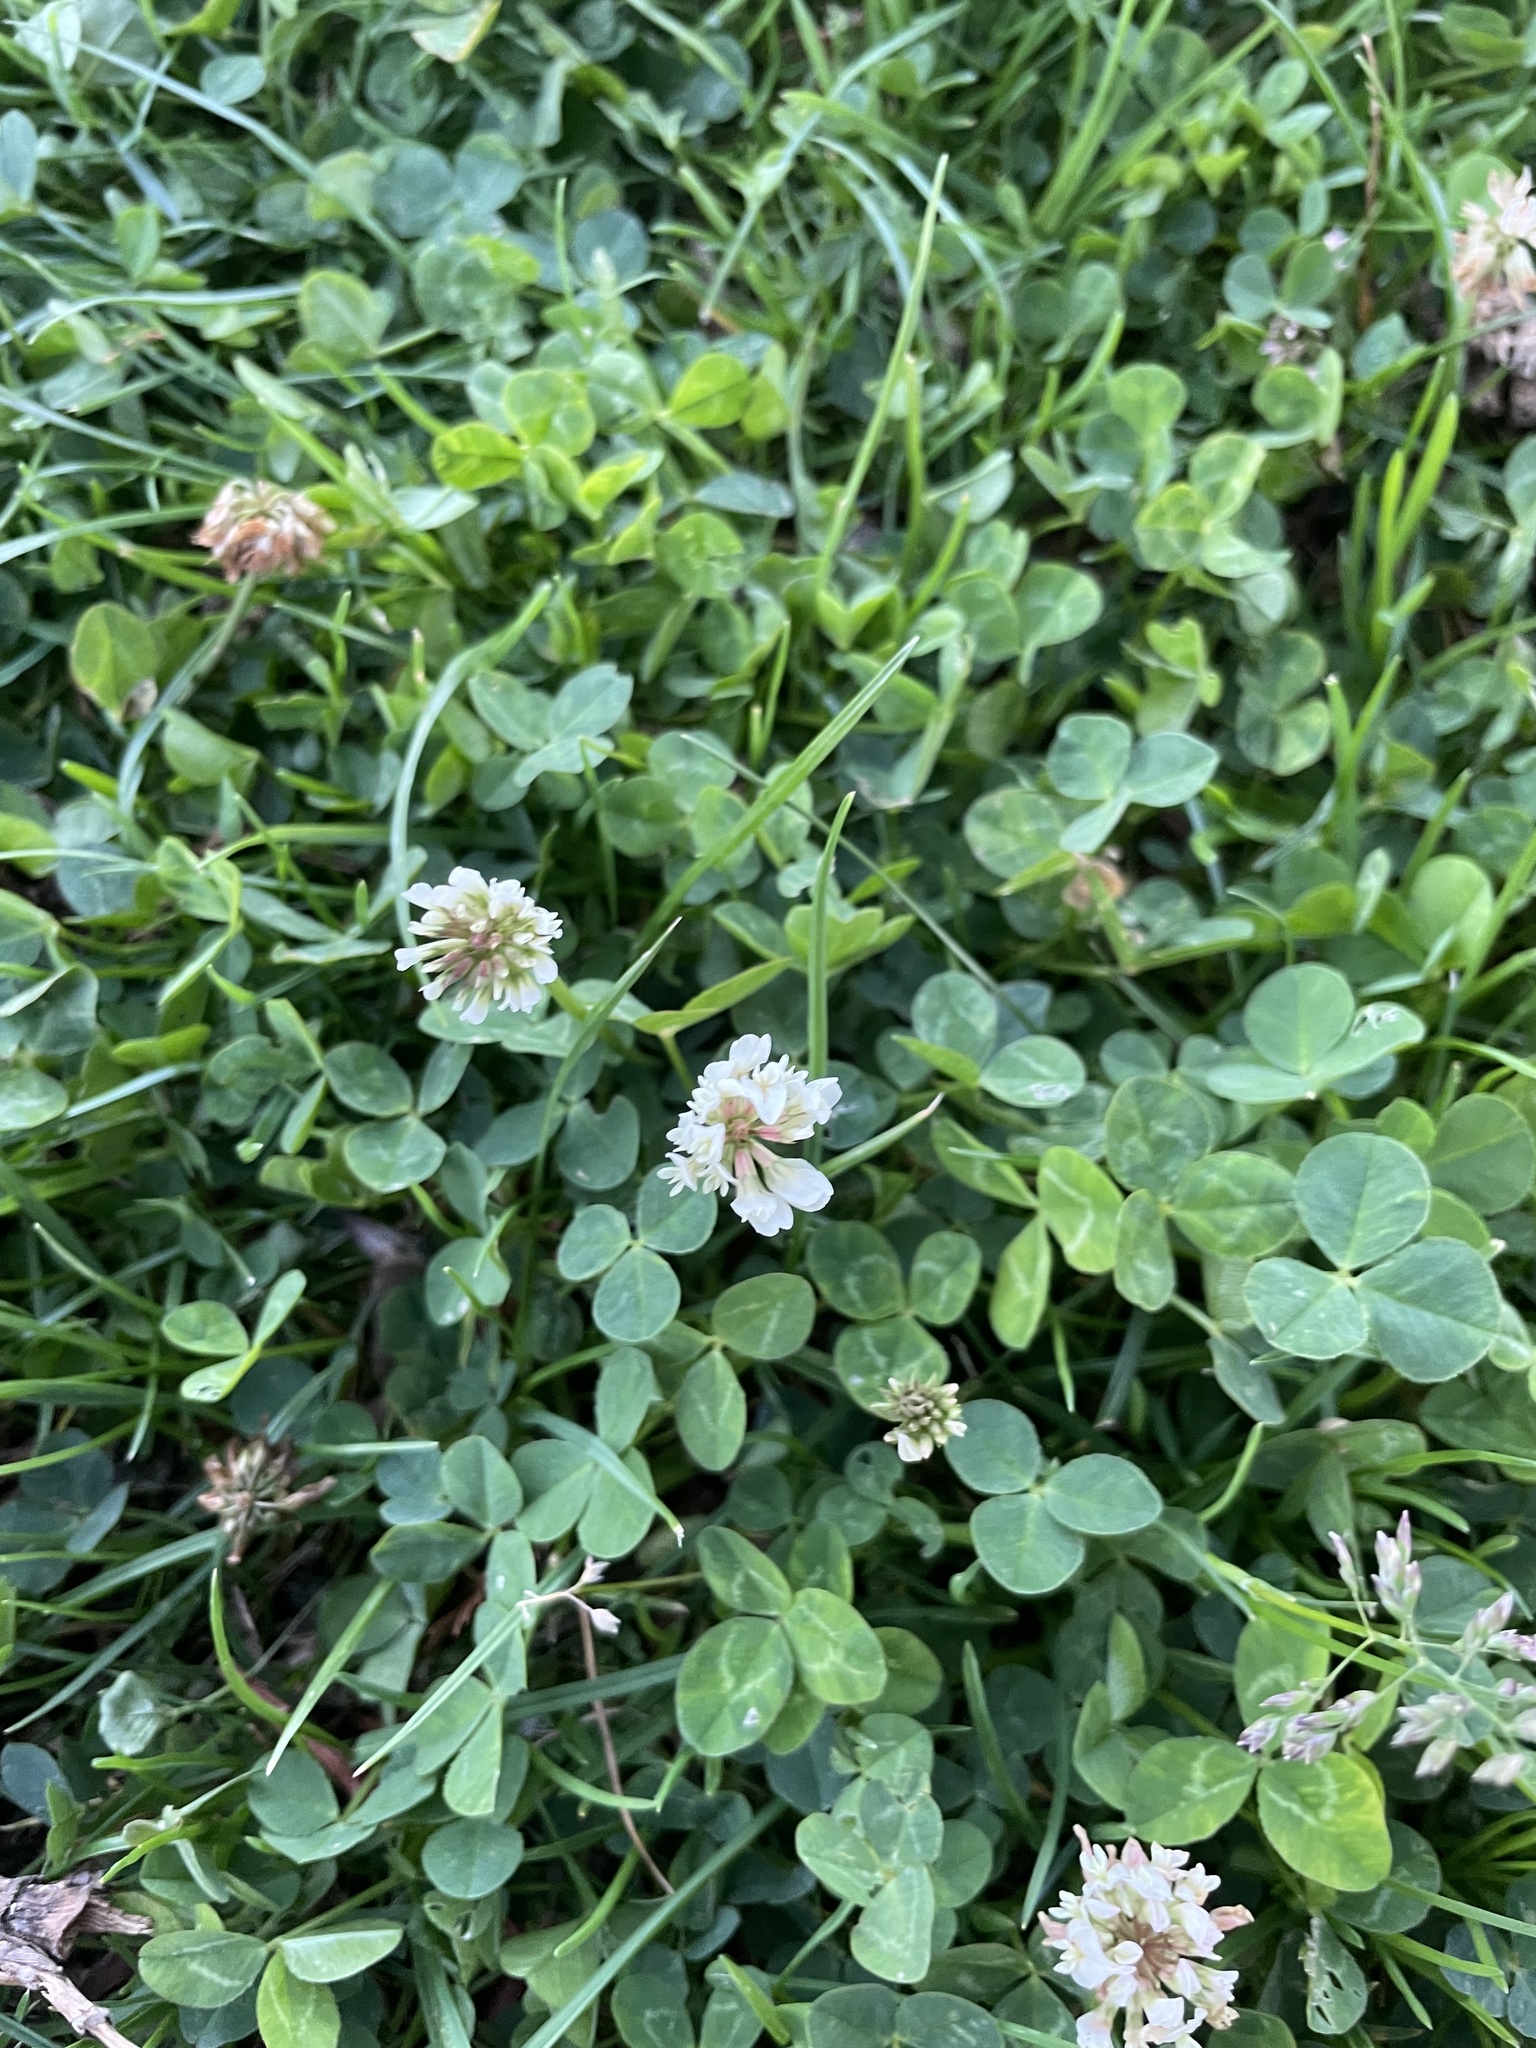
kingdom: Plantae
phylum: Tracheophyta
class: Magnoliopsida
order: Fabales
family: Fabaceae
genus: Trifolium
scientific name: Trifolium repens
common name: White clover
